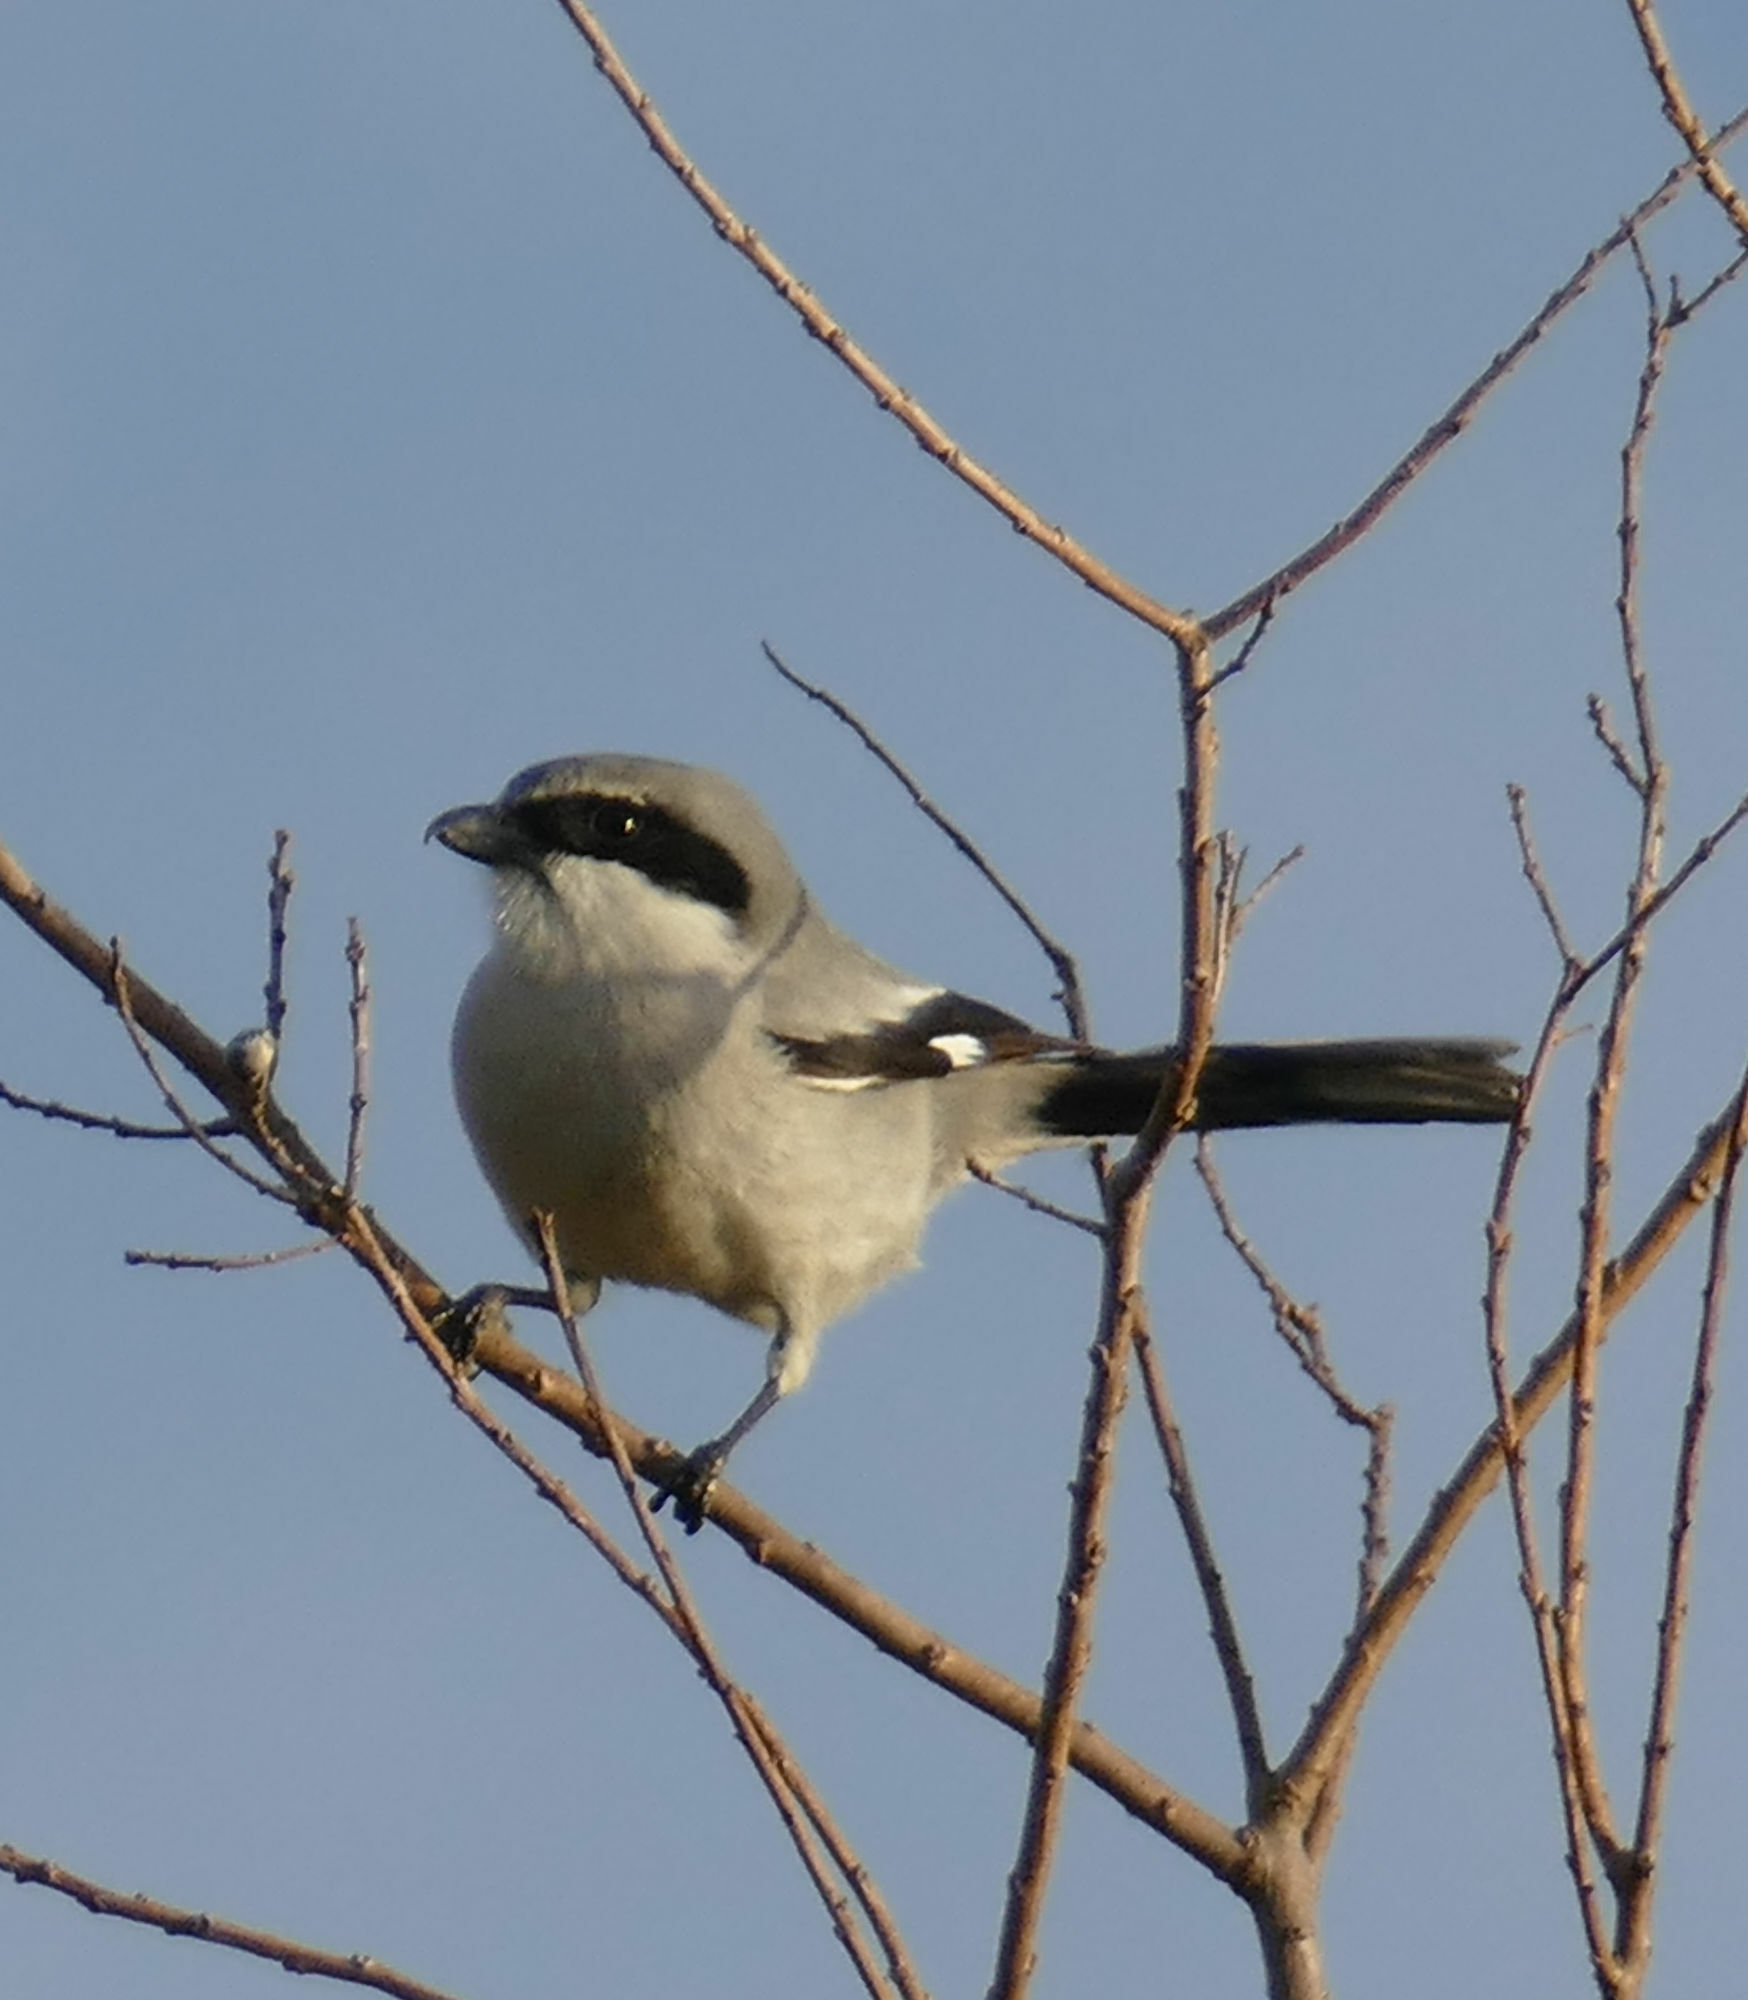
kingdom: Animalia
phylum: Chordata
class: Aves
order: Passeriformes
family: Laniidae
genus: Lanius
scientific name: Lanius ludovicianus
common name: Loggerhead shrike
